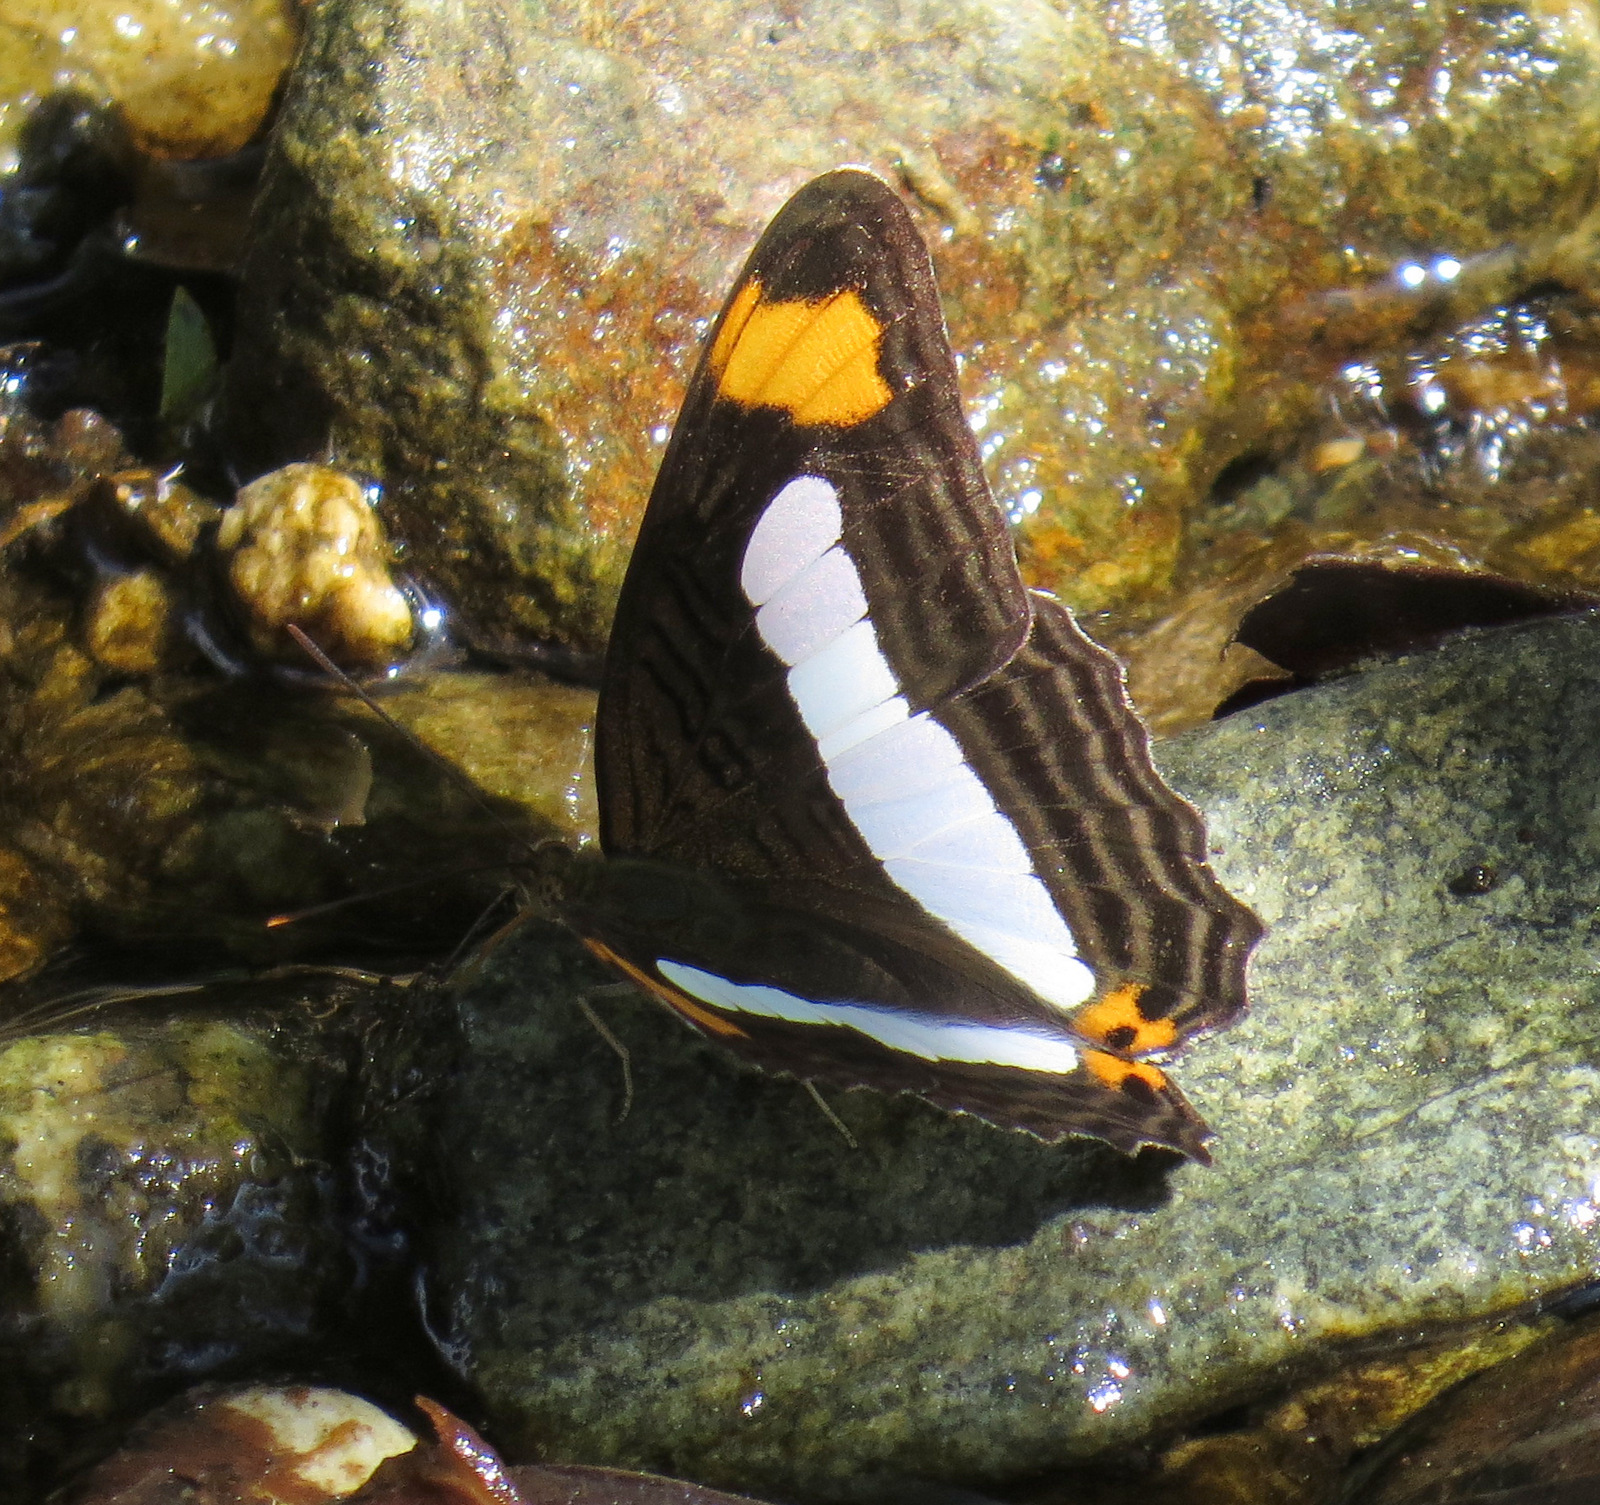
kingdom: Animalia
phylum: Arthropoda
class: Insecta
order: Lepidoptera
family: Nymphalidae
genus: Limenitis
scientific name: Limenitis iphiclus
